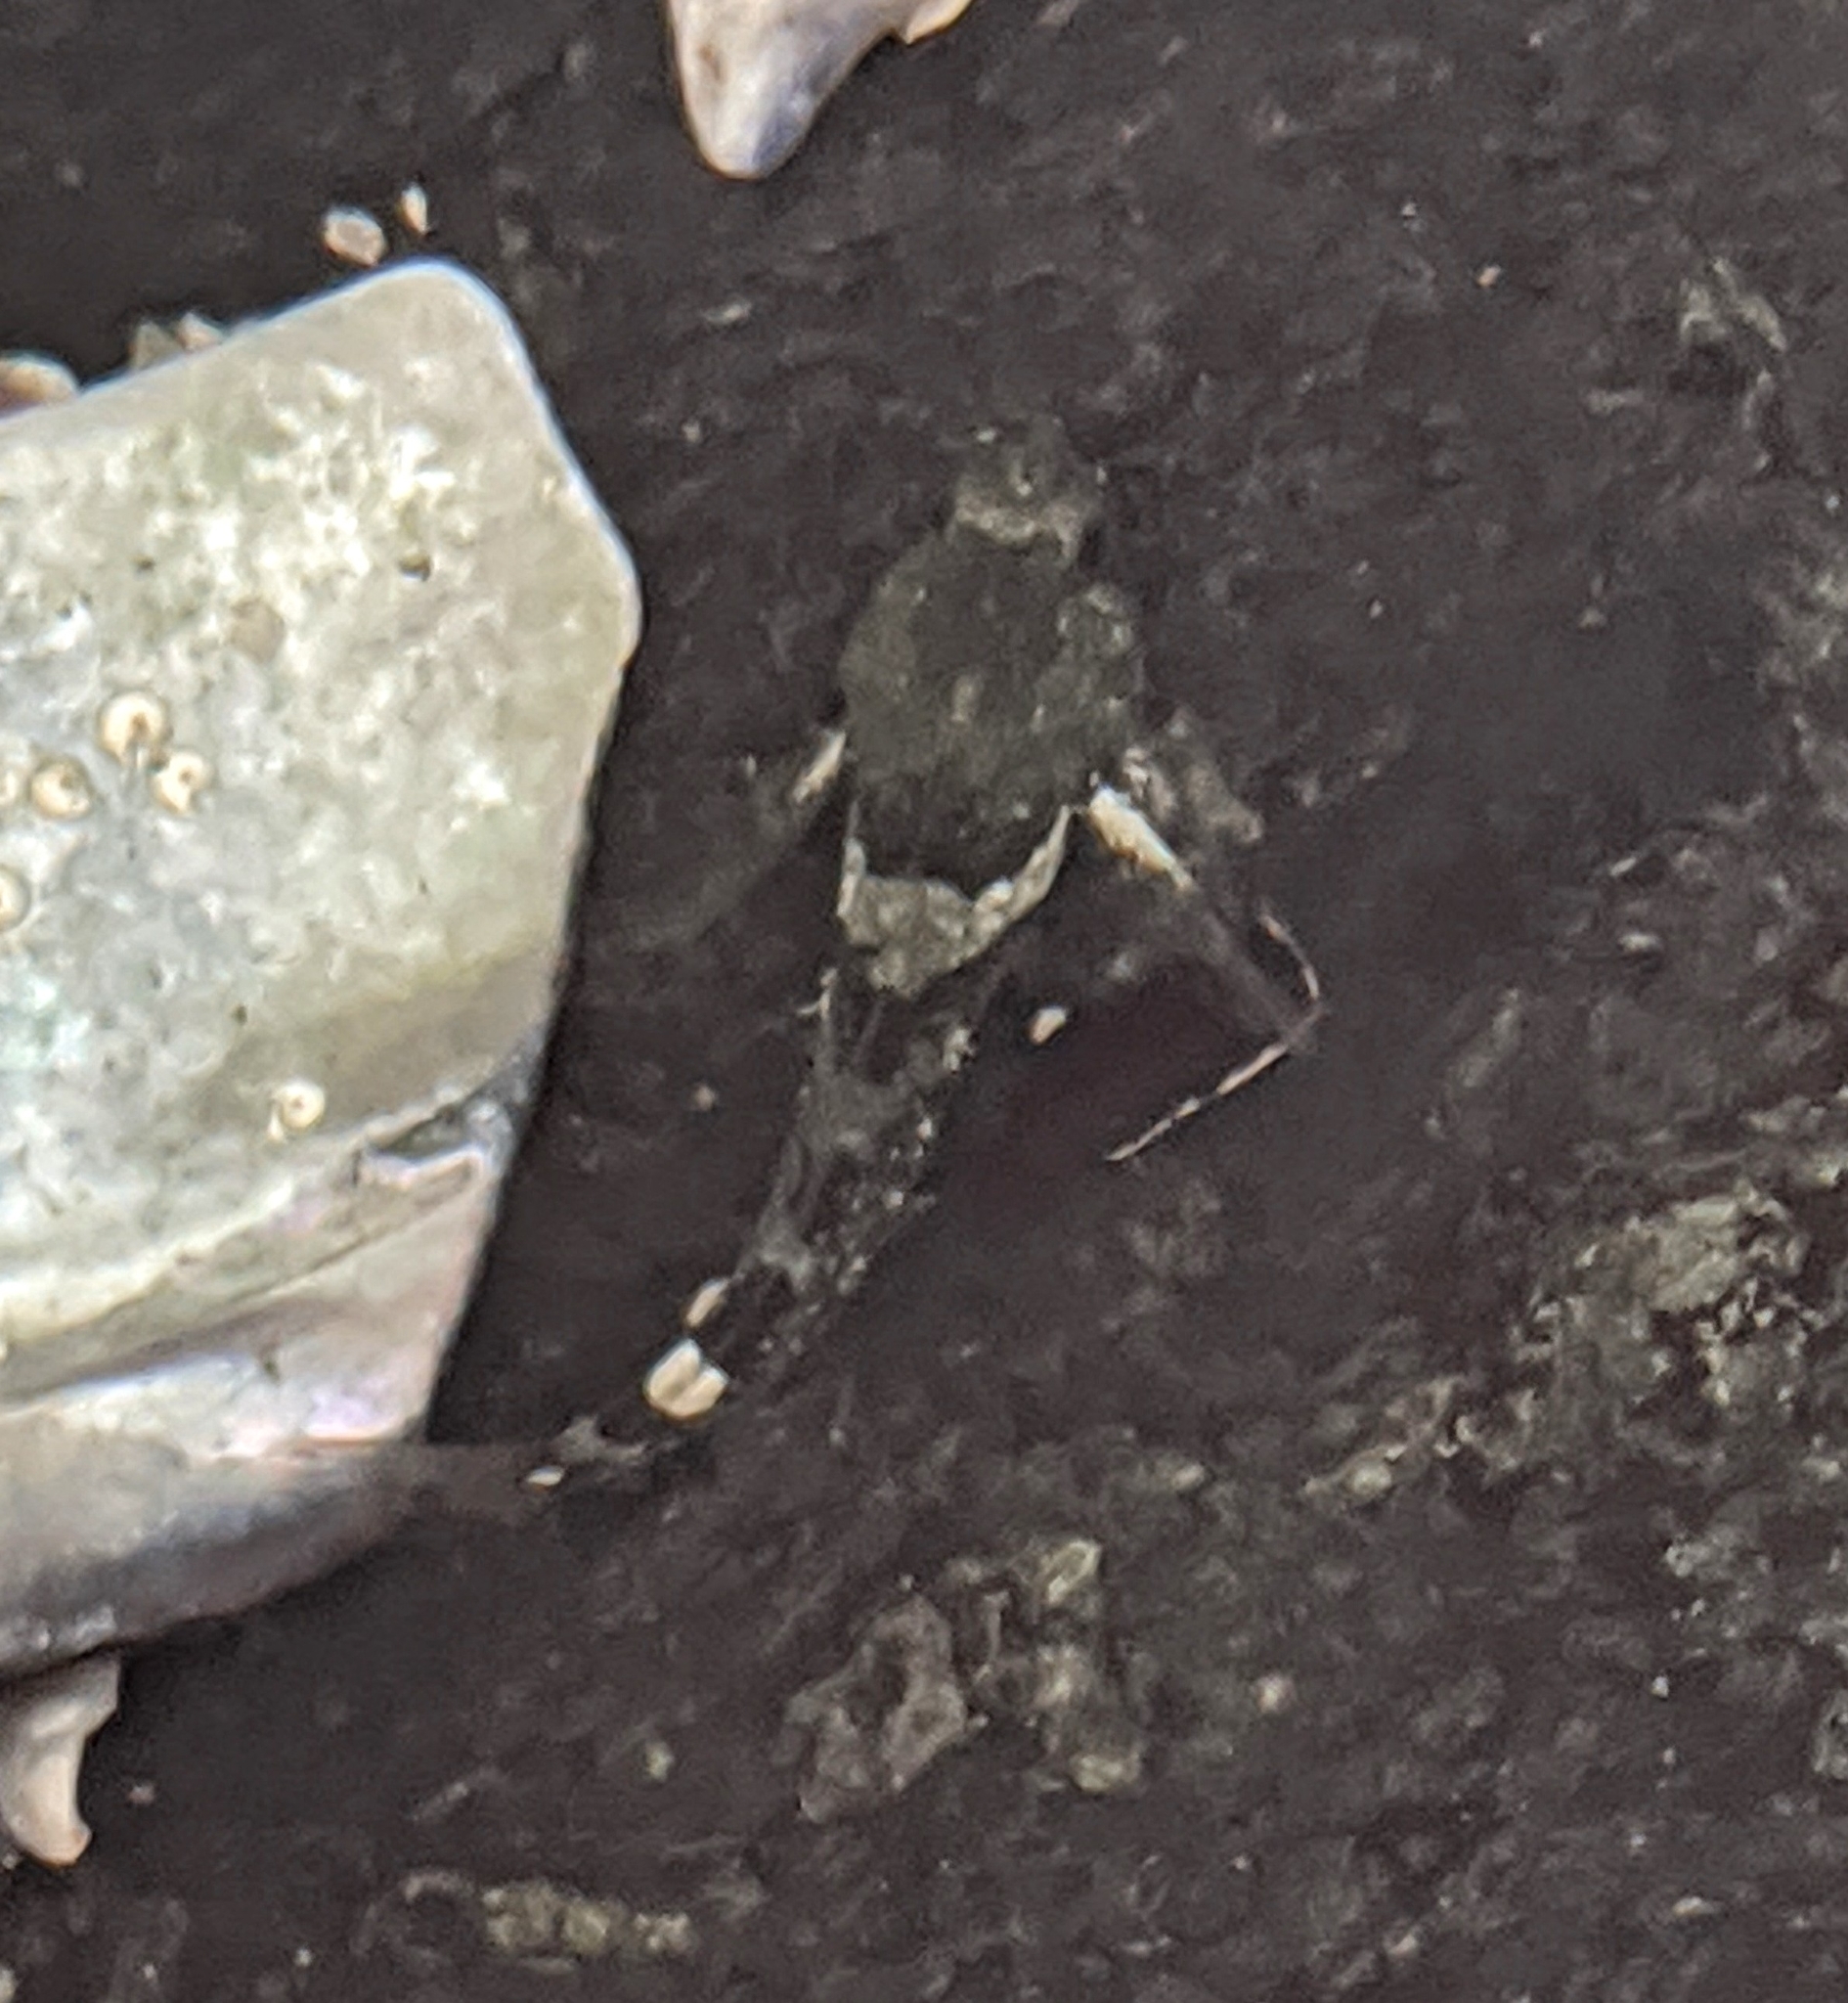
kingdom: Animalia
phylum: Chordata
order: Scorpaeniformes
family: Cottidae
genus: Oligocottus
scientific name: Oligocottus maculosus
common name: Tidepool sculpin
